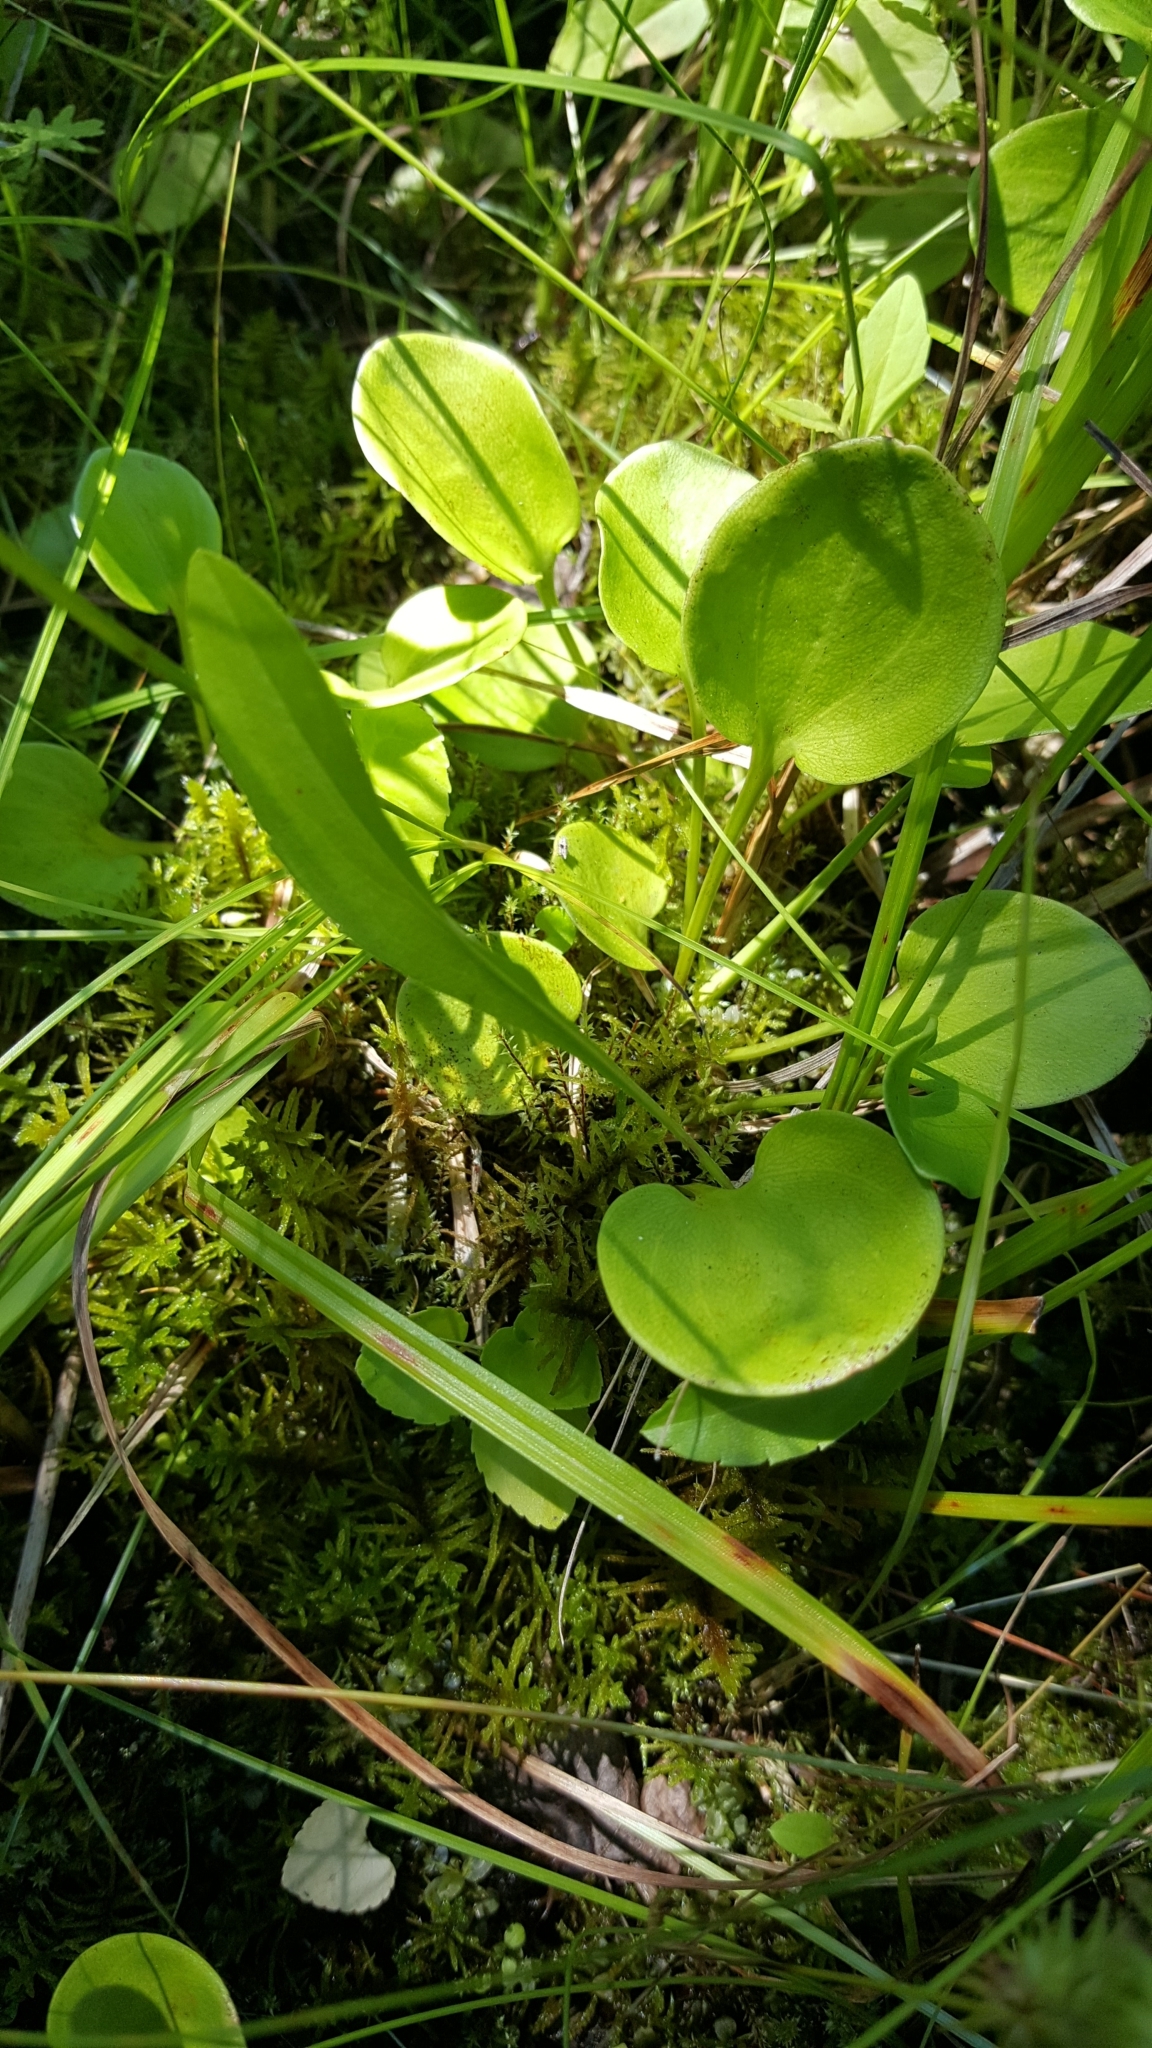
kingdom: Plantae
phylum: Tracheophyta
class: Magnoliopsida
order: Celastrales
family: Parnassiaceae
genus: Parnassia
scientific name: Parnassia glauca
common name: American grass-of-parnassus
